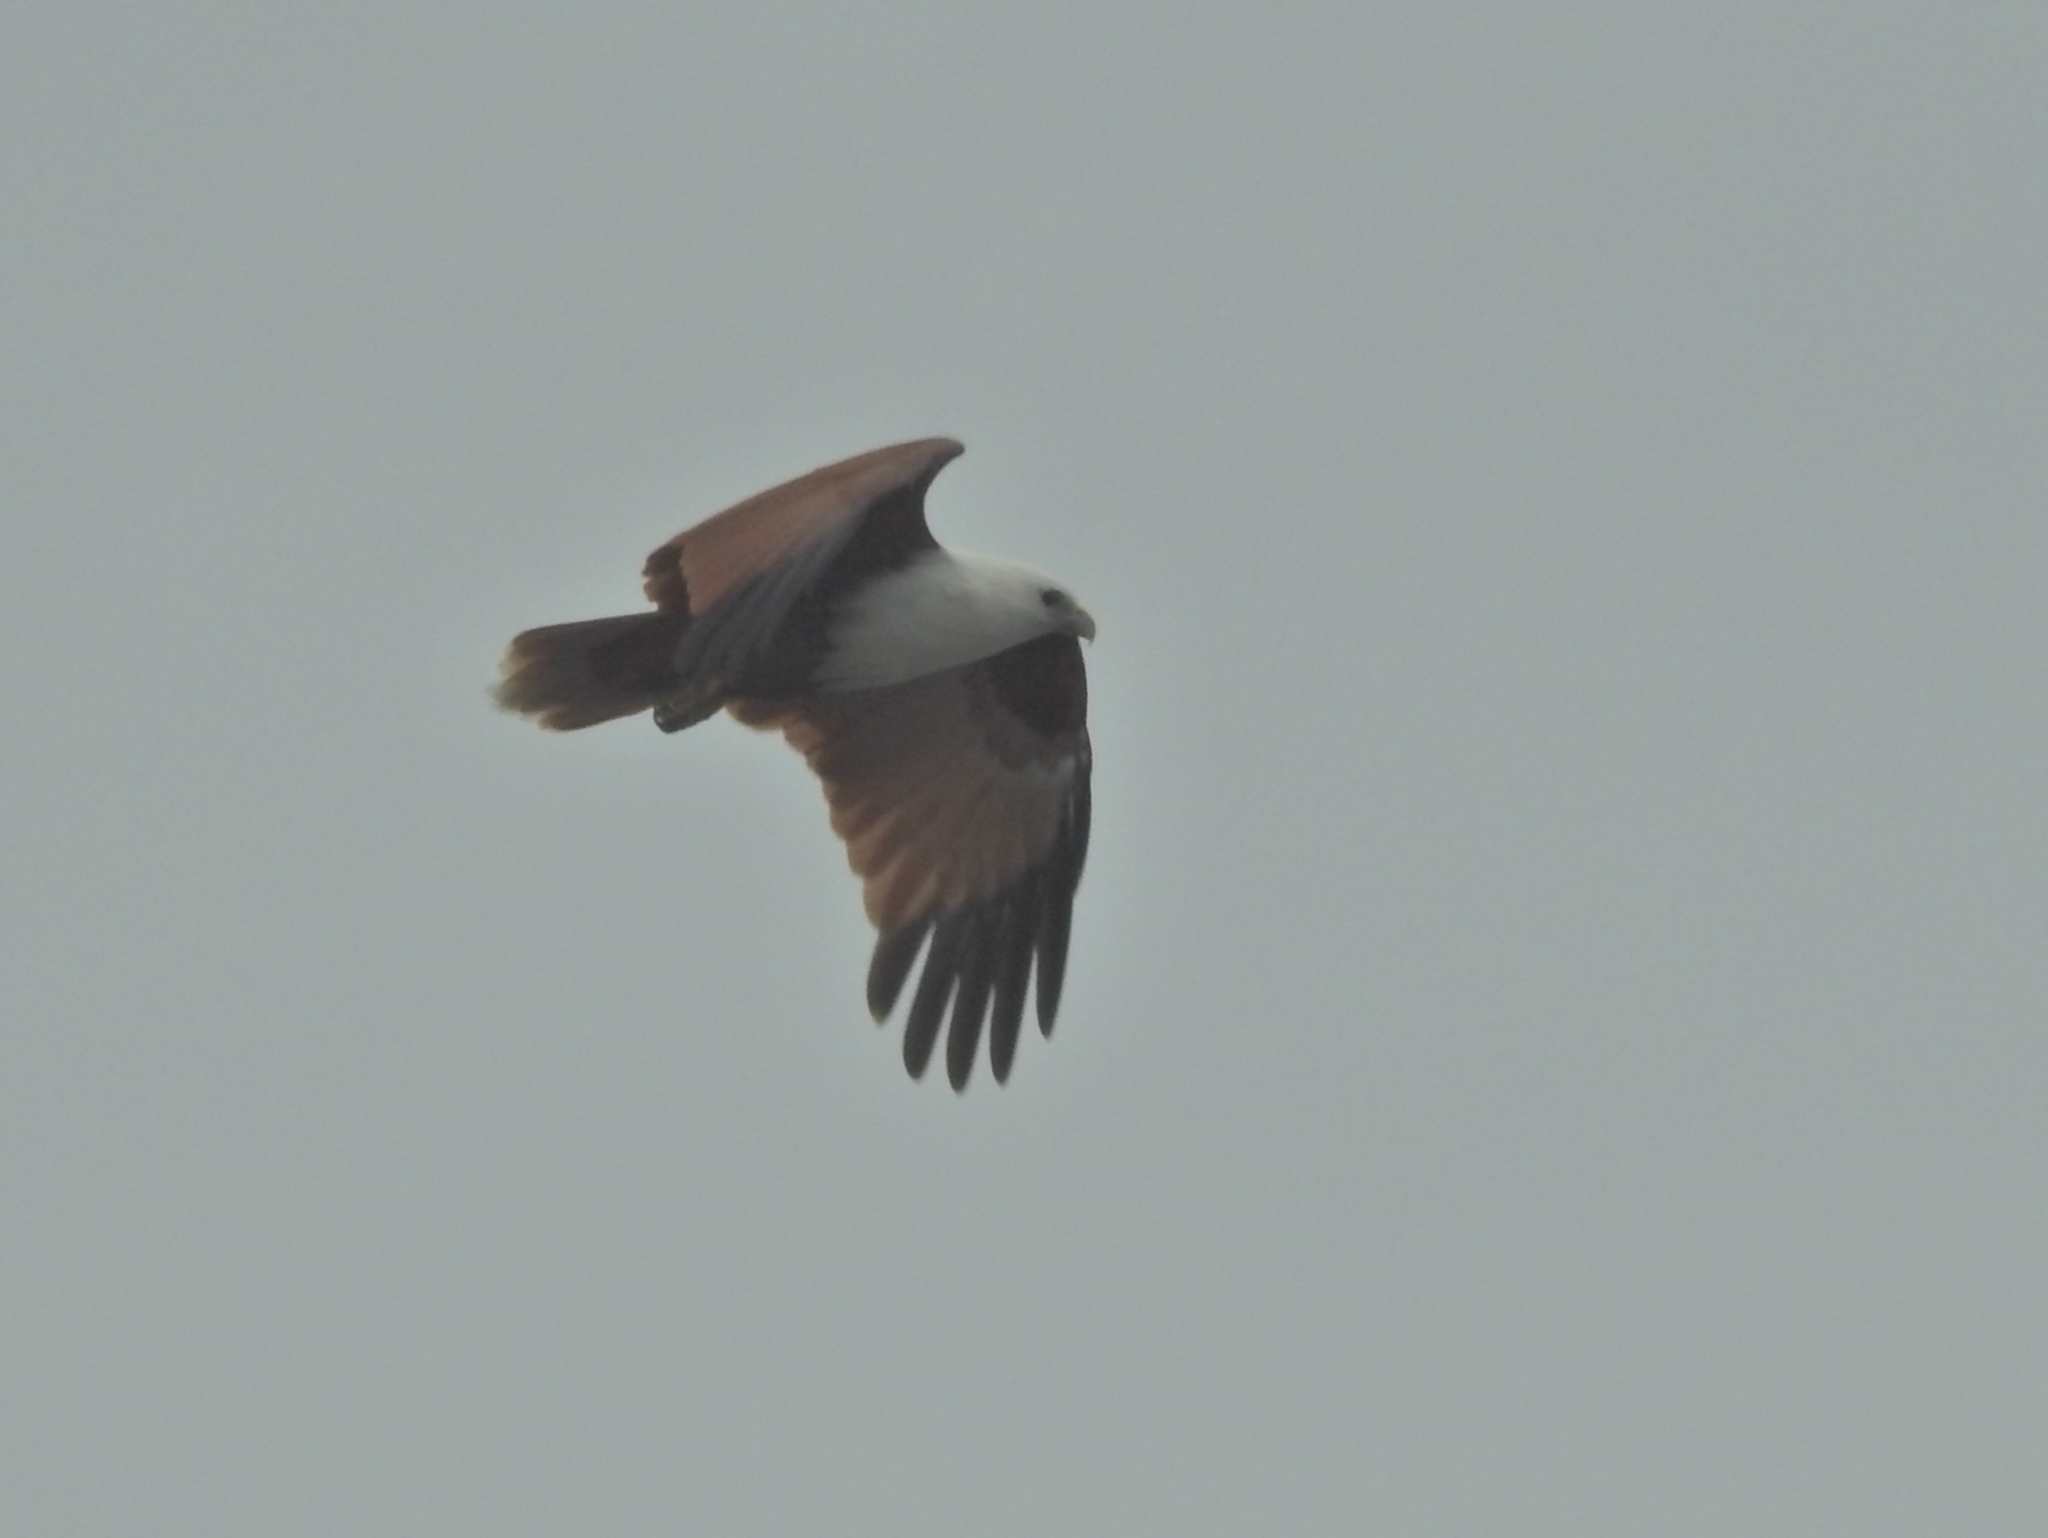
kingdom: Animalia
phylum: Chordata
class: Aves
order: Accipitriformes
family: Accipitridae
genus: Haliastur
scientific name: Haliastur indus
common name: Brahminy kite
